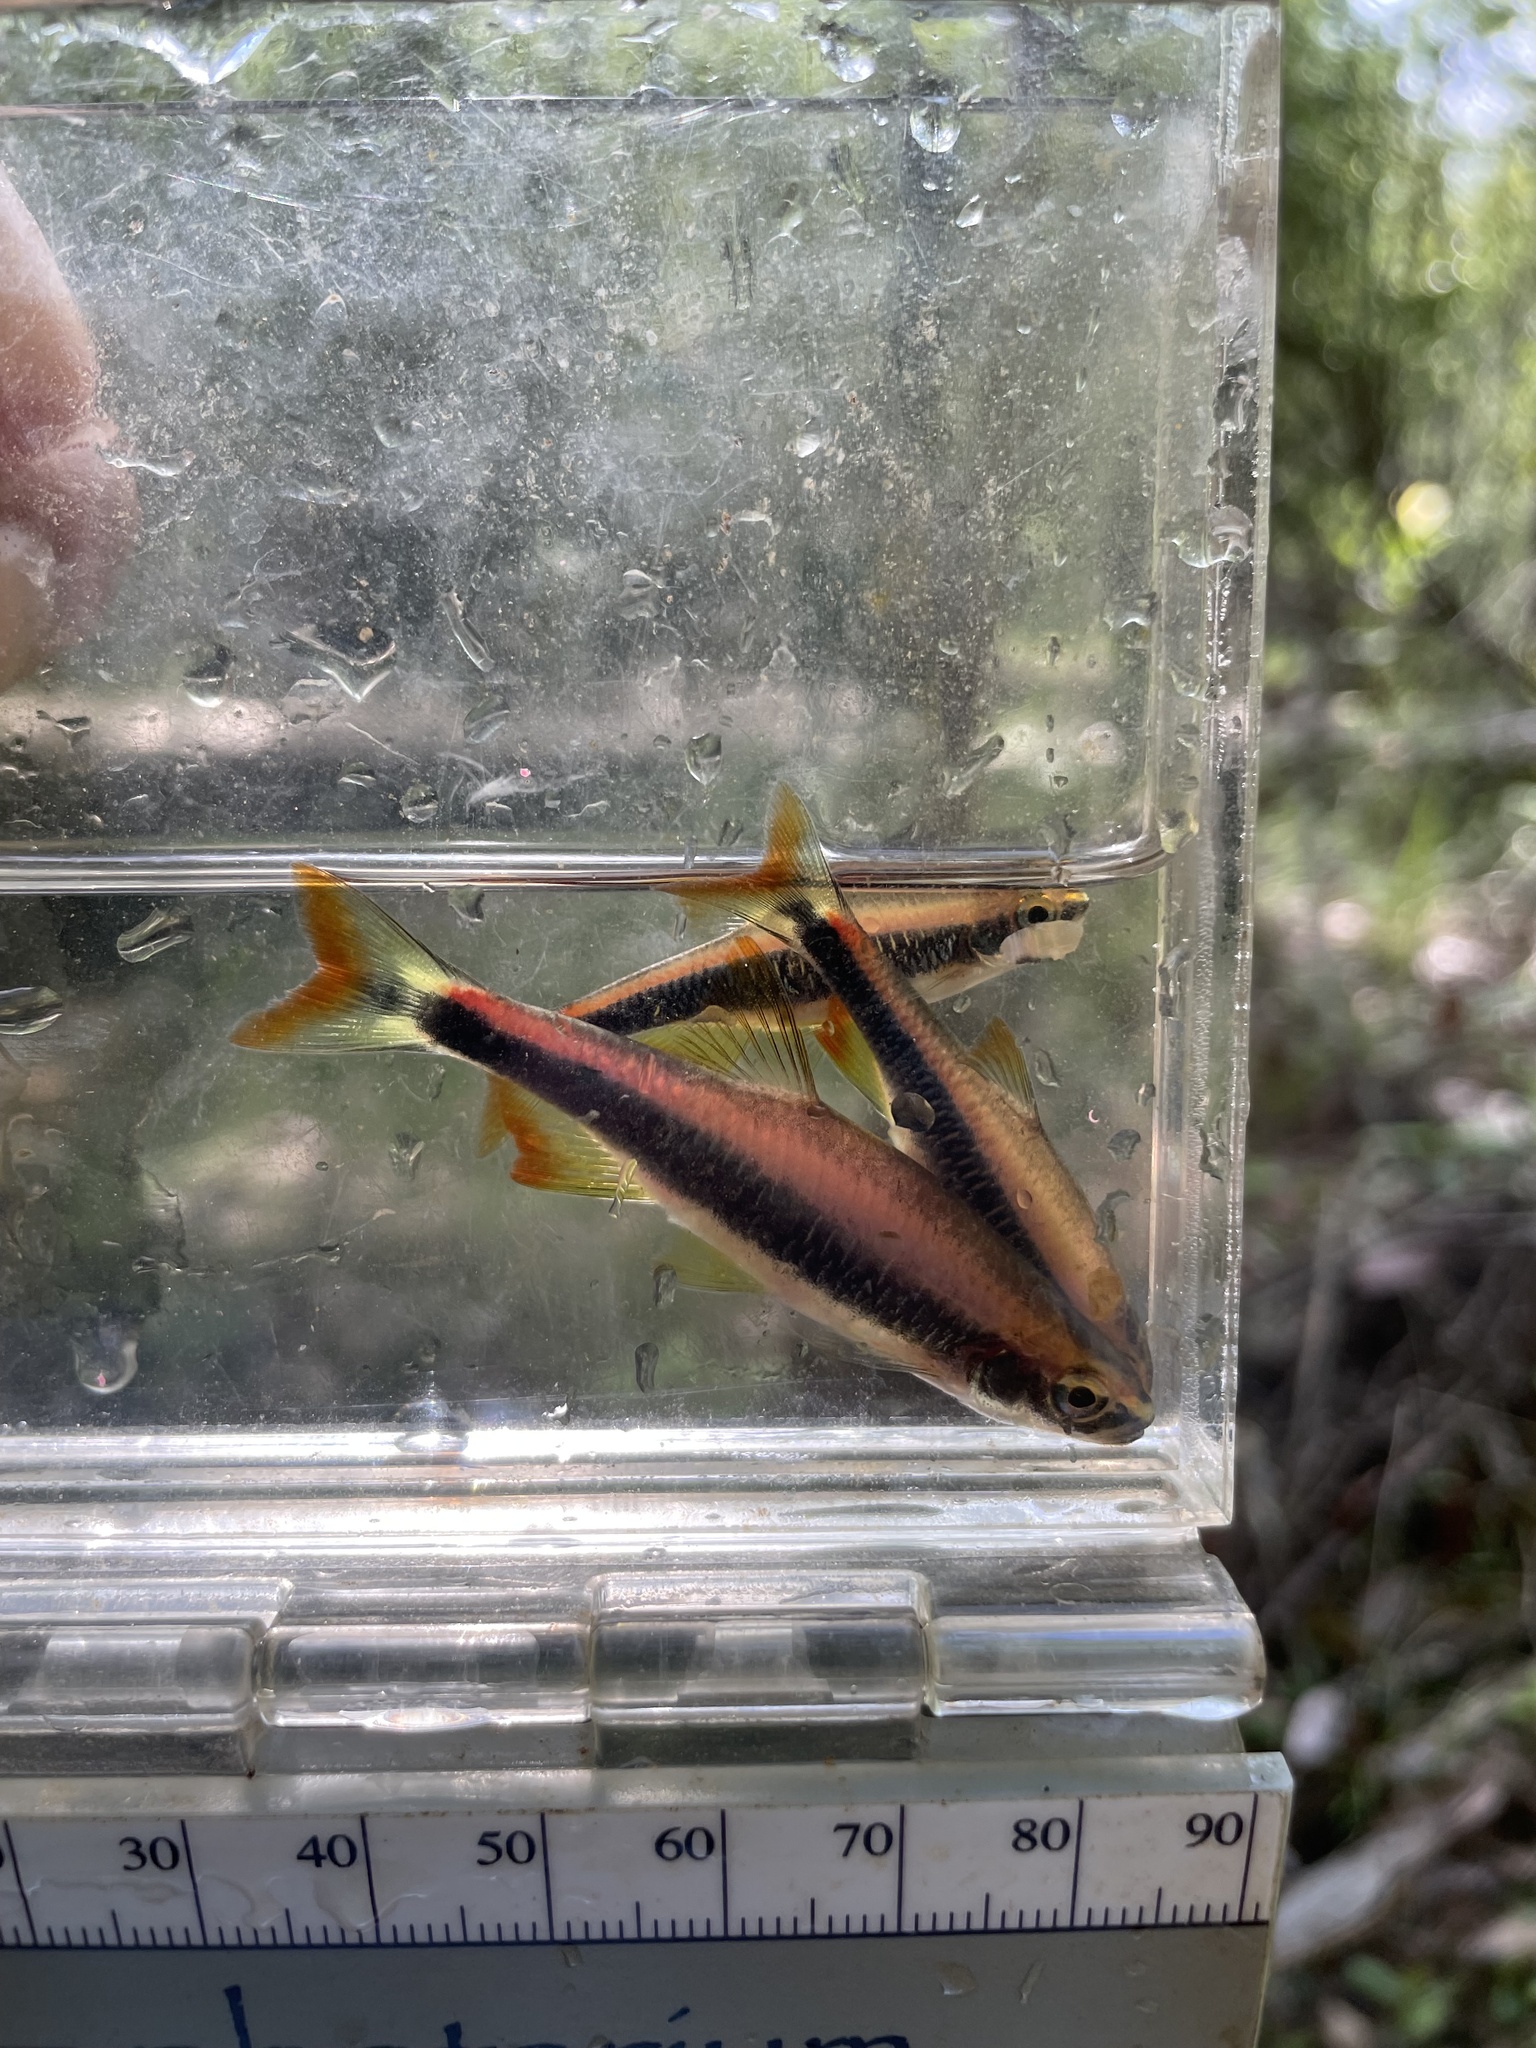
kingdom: Animalia
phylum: Chordata
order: Cypriniformes
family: Cyprinidae
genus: Pteronotropis
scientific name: Pteronotropis signipinnis
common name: Flagfin shiner
